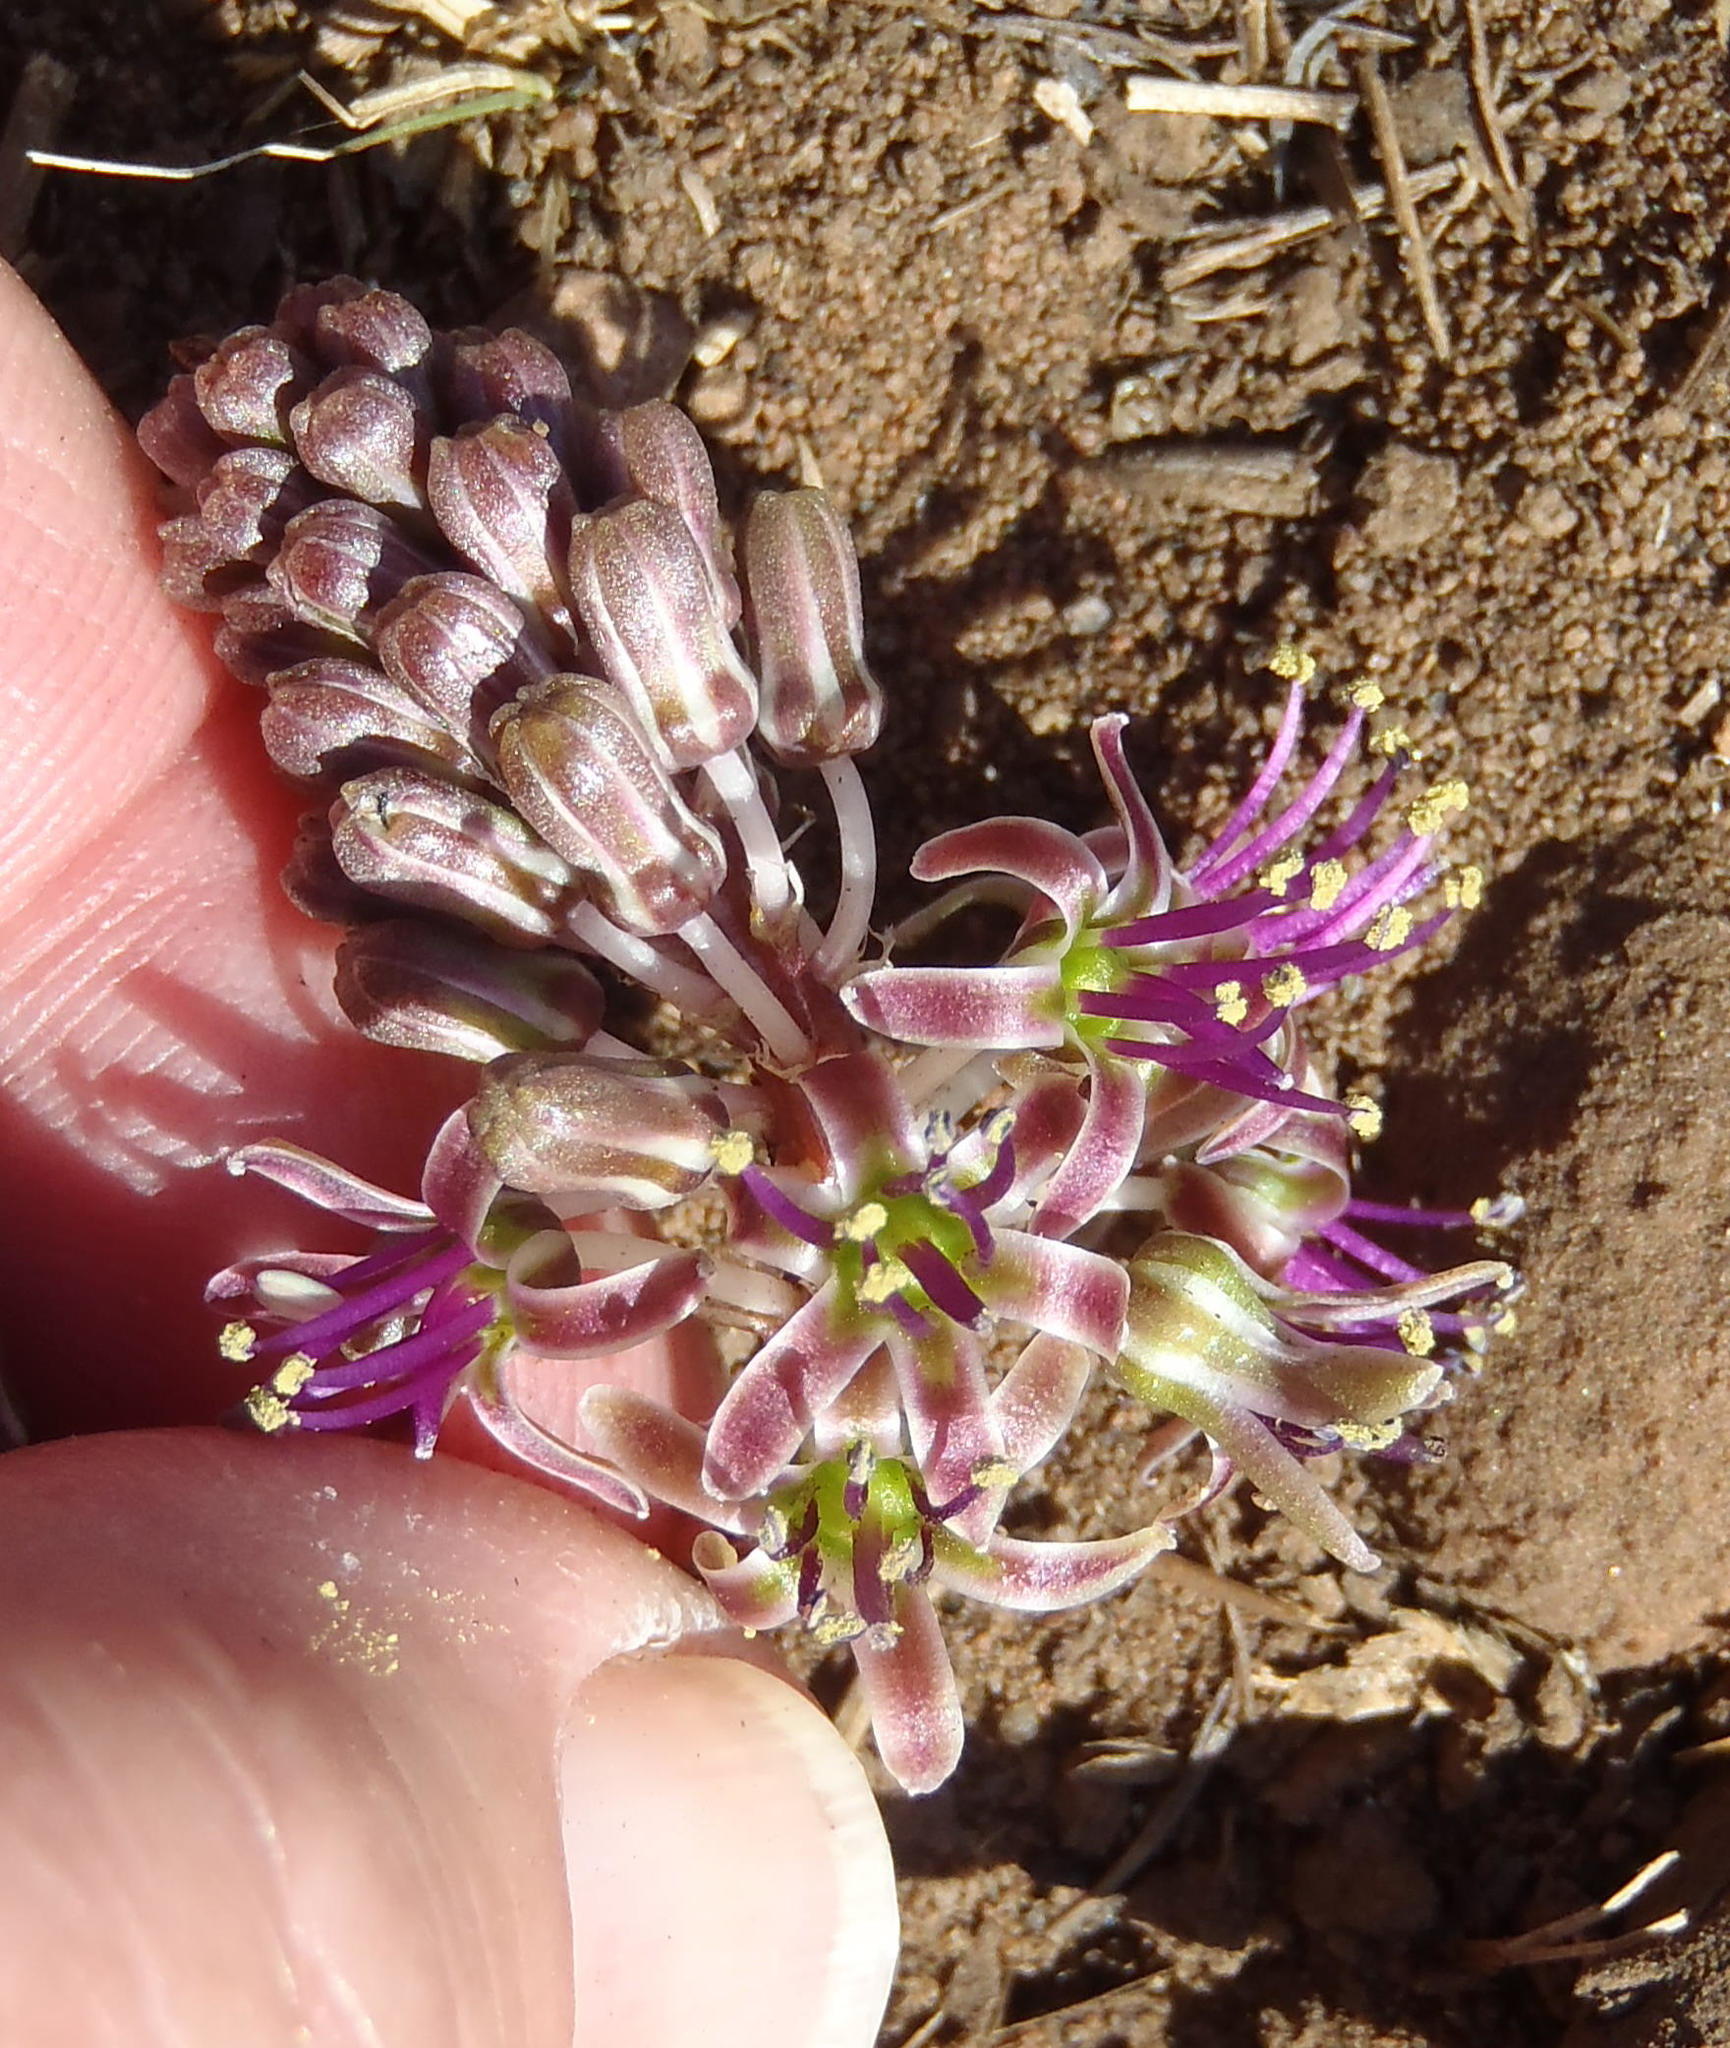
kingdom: Plantae
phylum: Tracheophyta
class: Liliopsida
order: Asparagales
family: Asparagaceae
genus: Ledebouria
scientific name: Ledebouria ovatifolia
